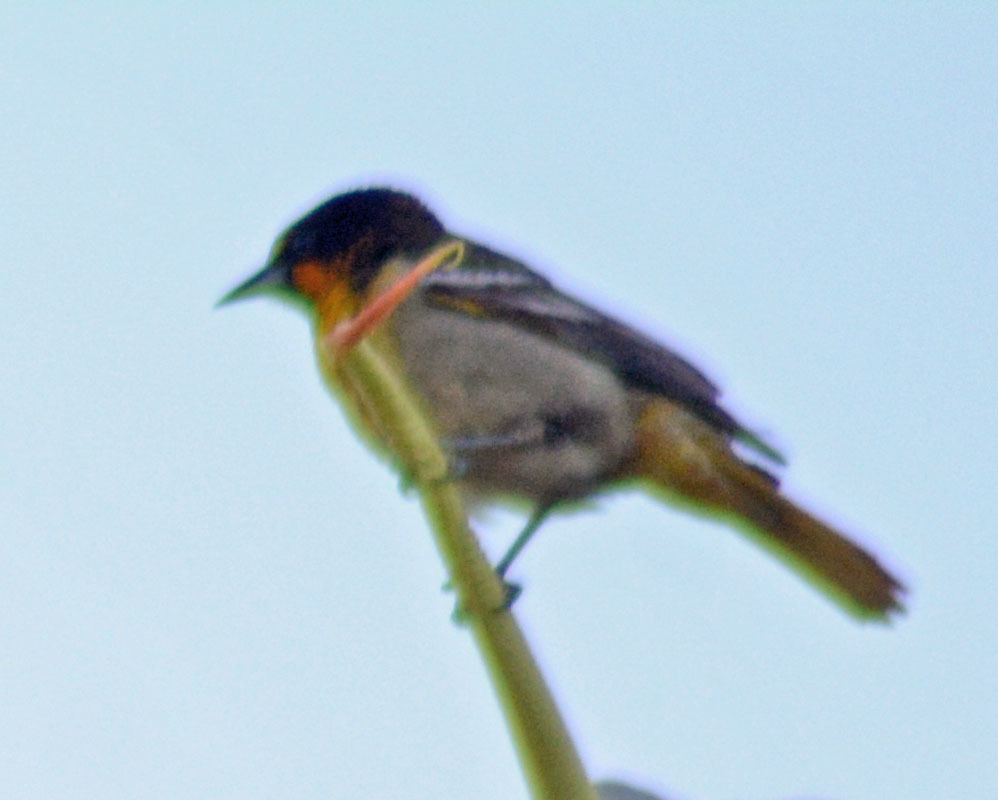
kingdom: Animalia
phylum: Chordata
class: Aves
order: Passeriformes
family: Icteridae
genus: Icterus
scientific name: Icterus abeillei
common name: Black-backed oriole
